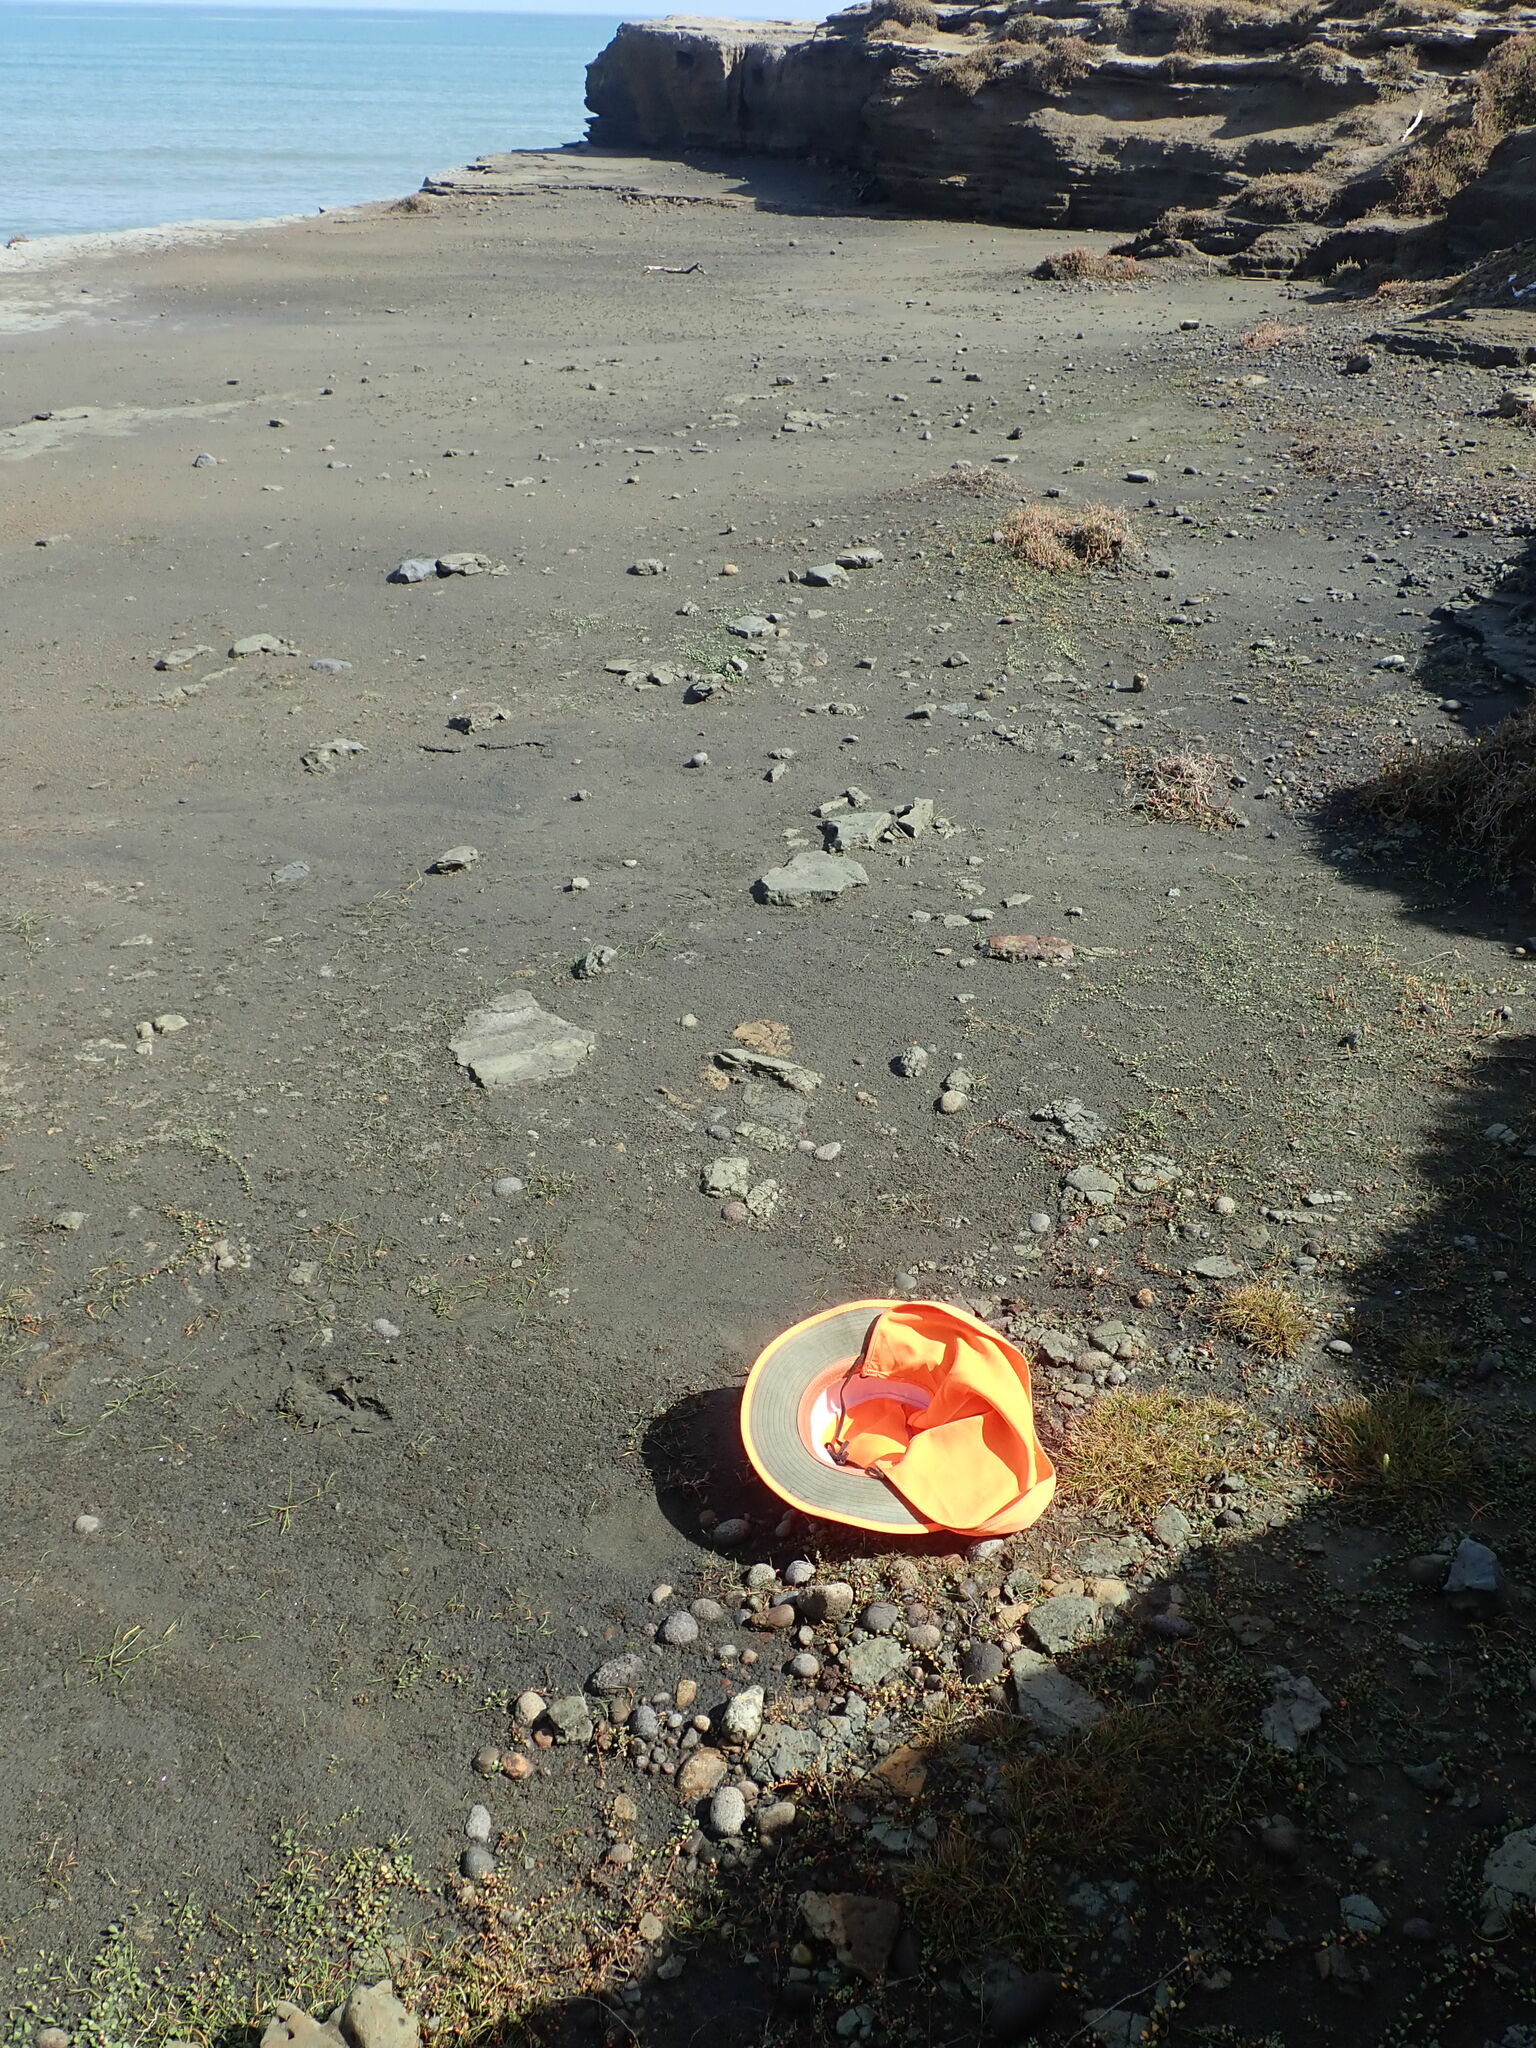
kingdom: Plantae
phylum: Tracheophyta
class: Liliopsida
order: Poales
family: Cyperaceae
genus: Isolepis
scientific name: Isolepis cernua
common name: Slender club-rush
